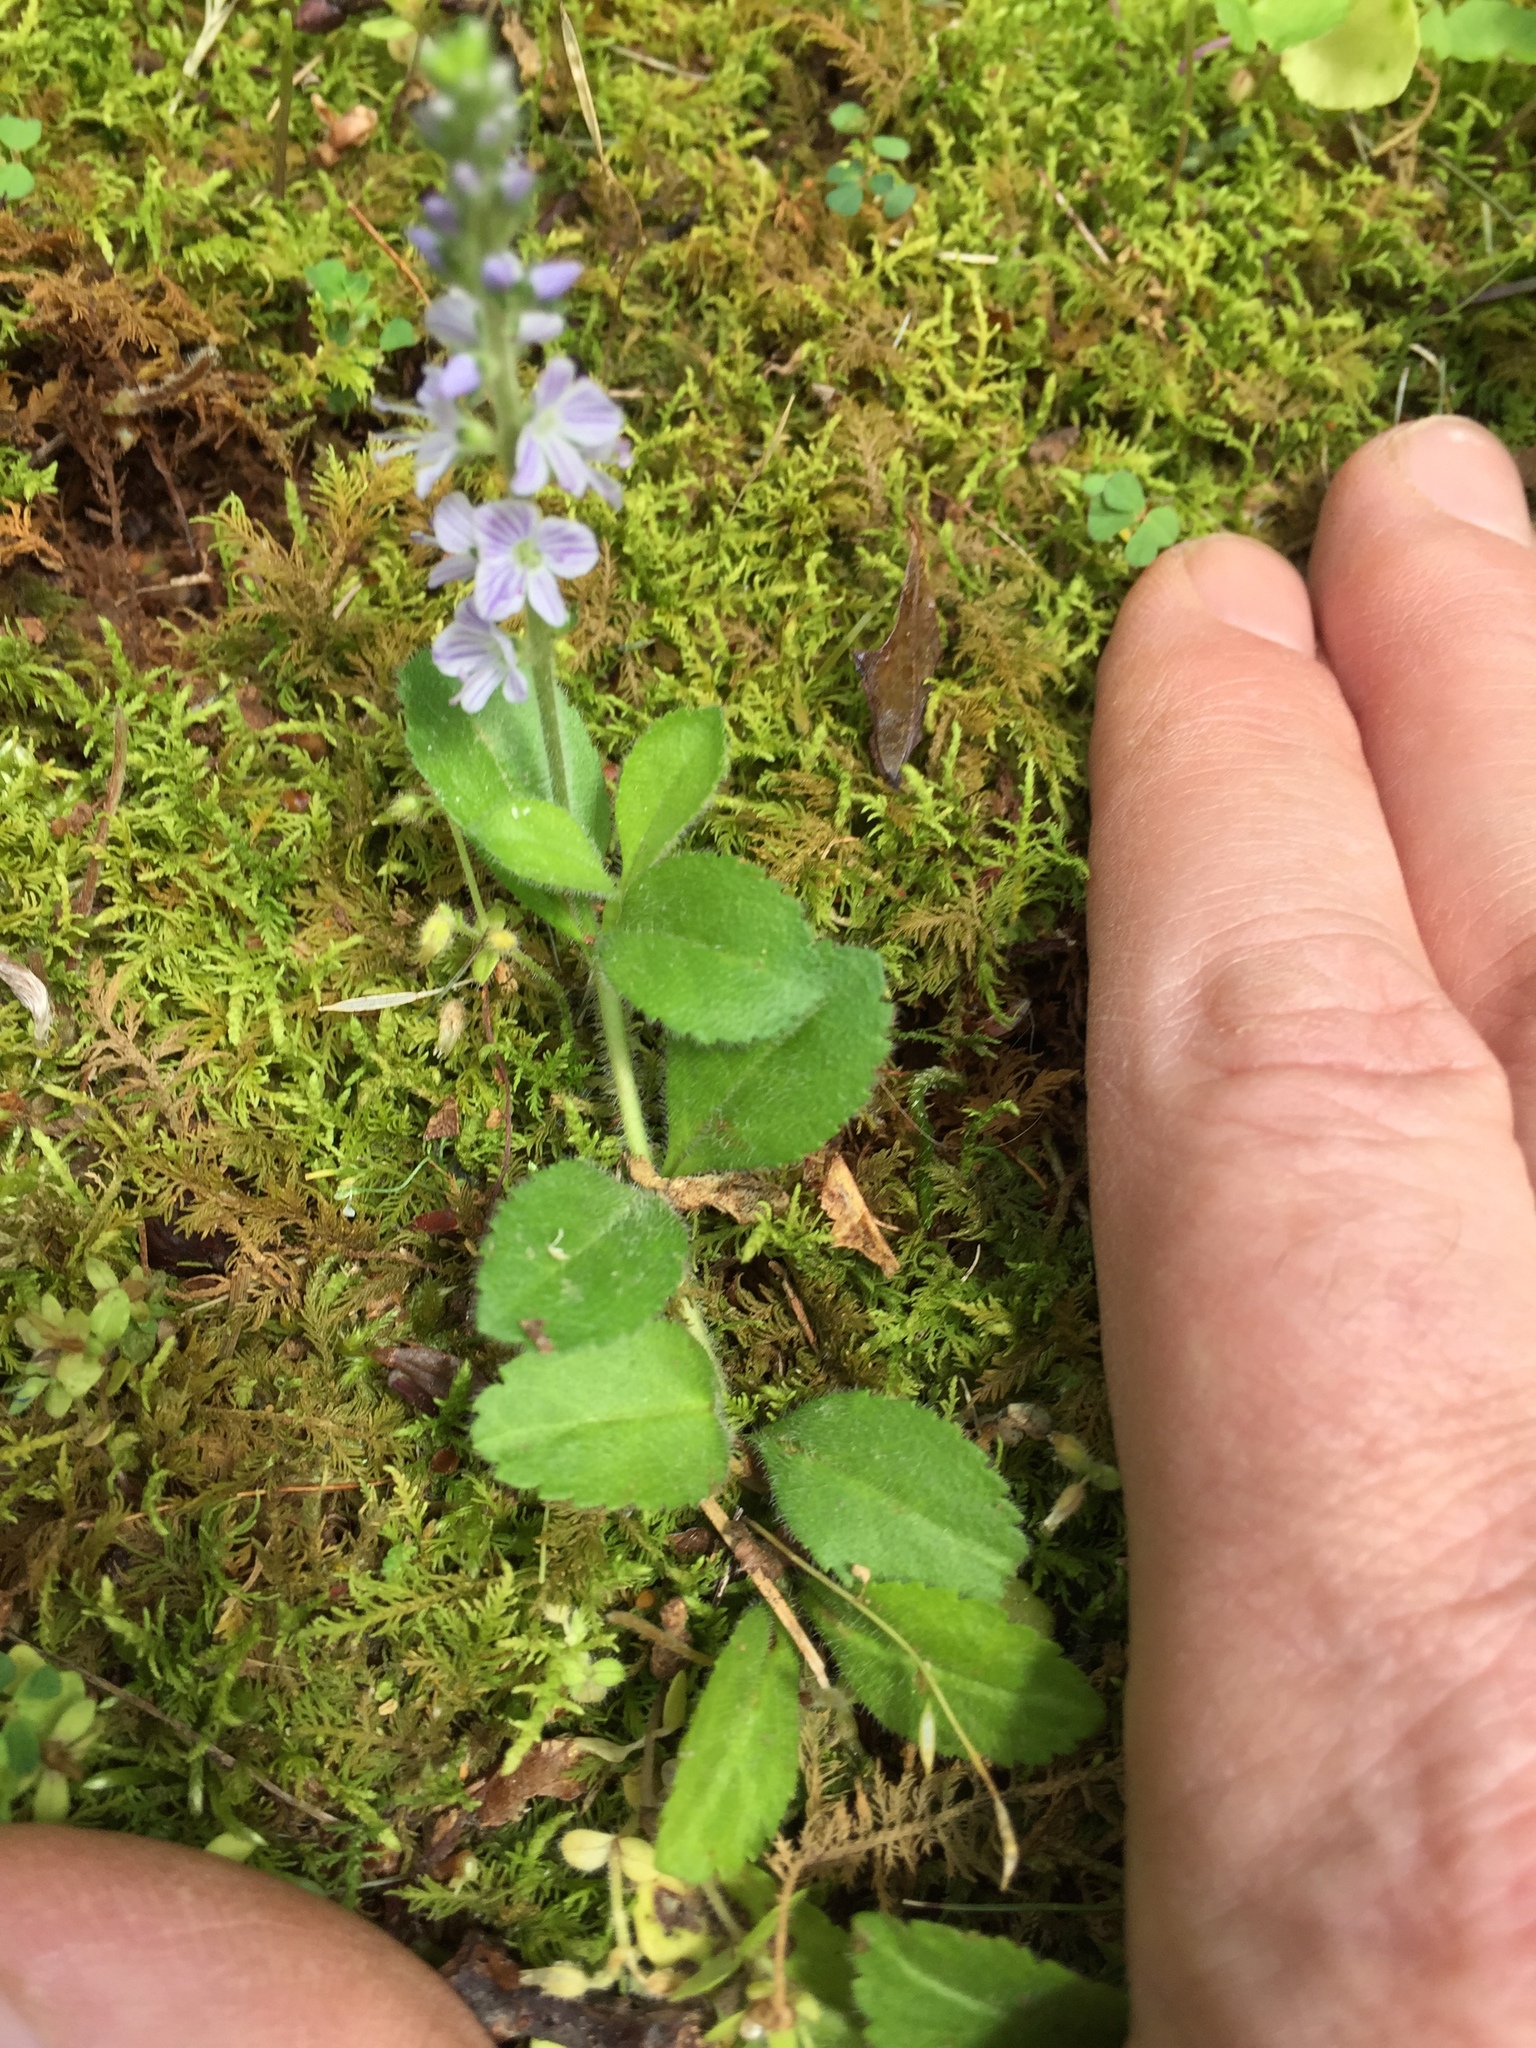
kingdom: Plantae
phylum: Tracheophyta
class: Magnoliopsida
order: Lamiales
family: Plantaginaceae
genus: Veronica
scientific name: Veronica officinalis
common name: Common speedwell
